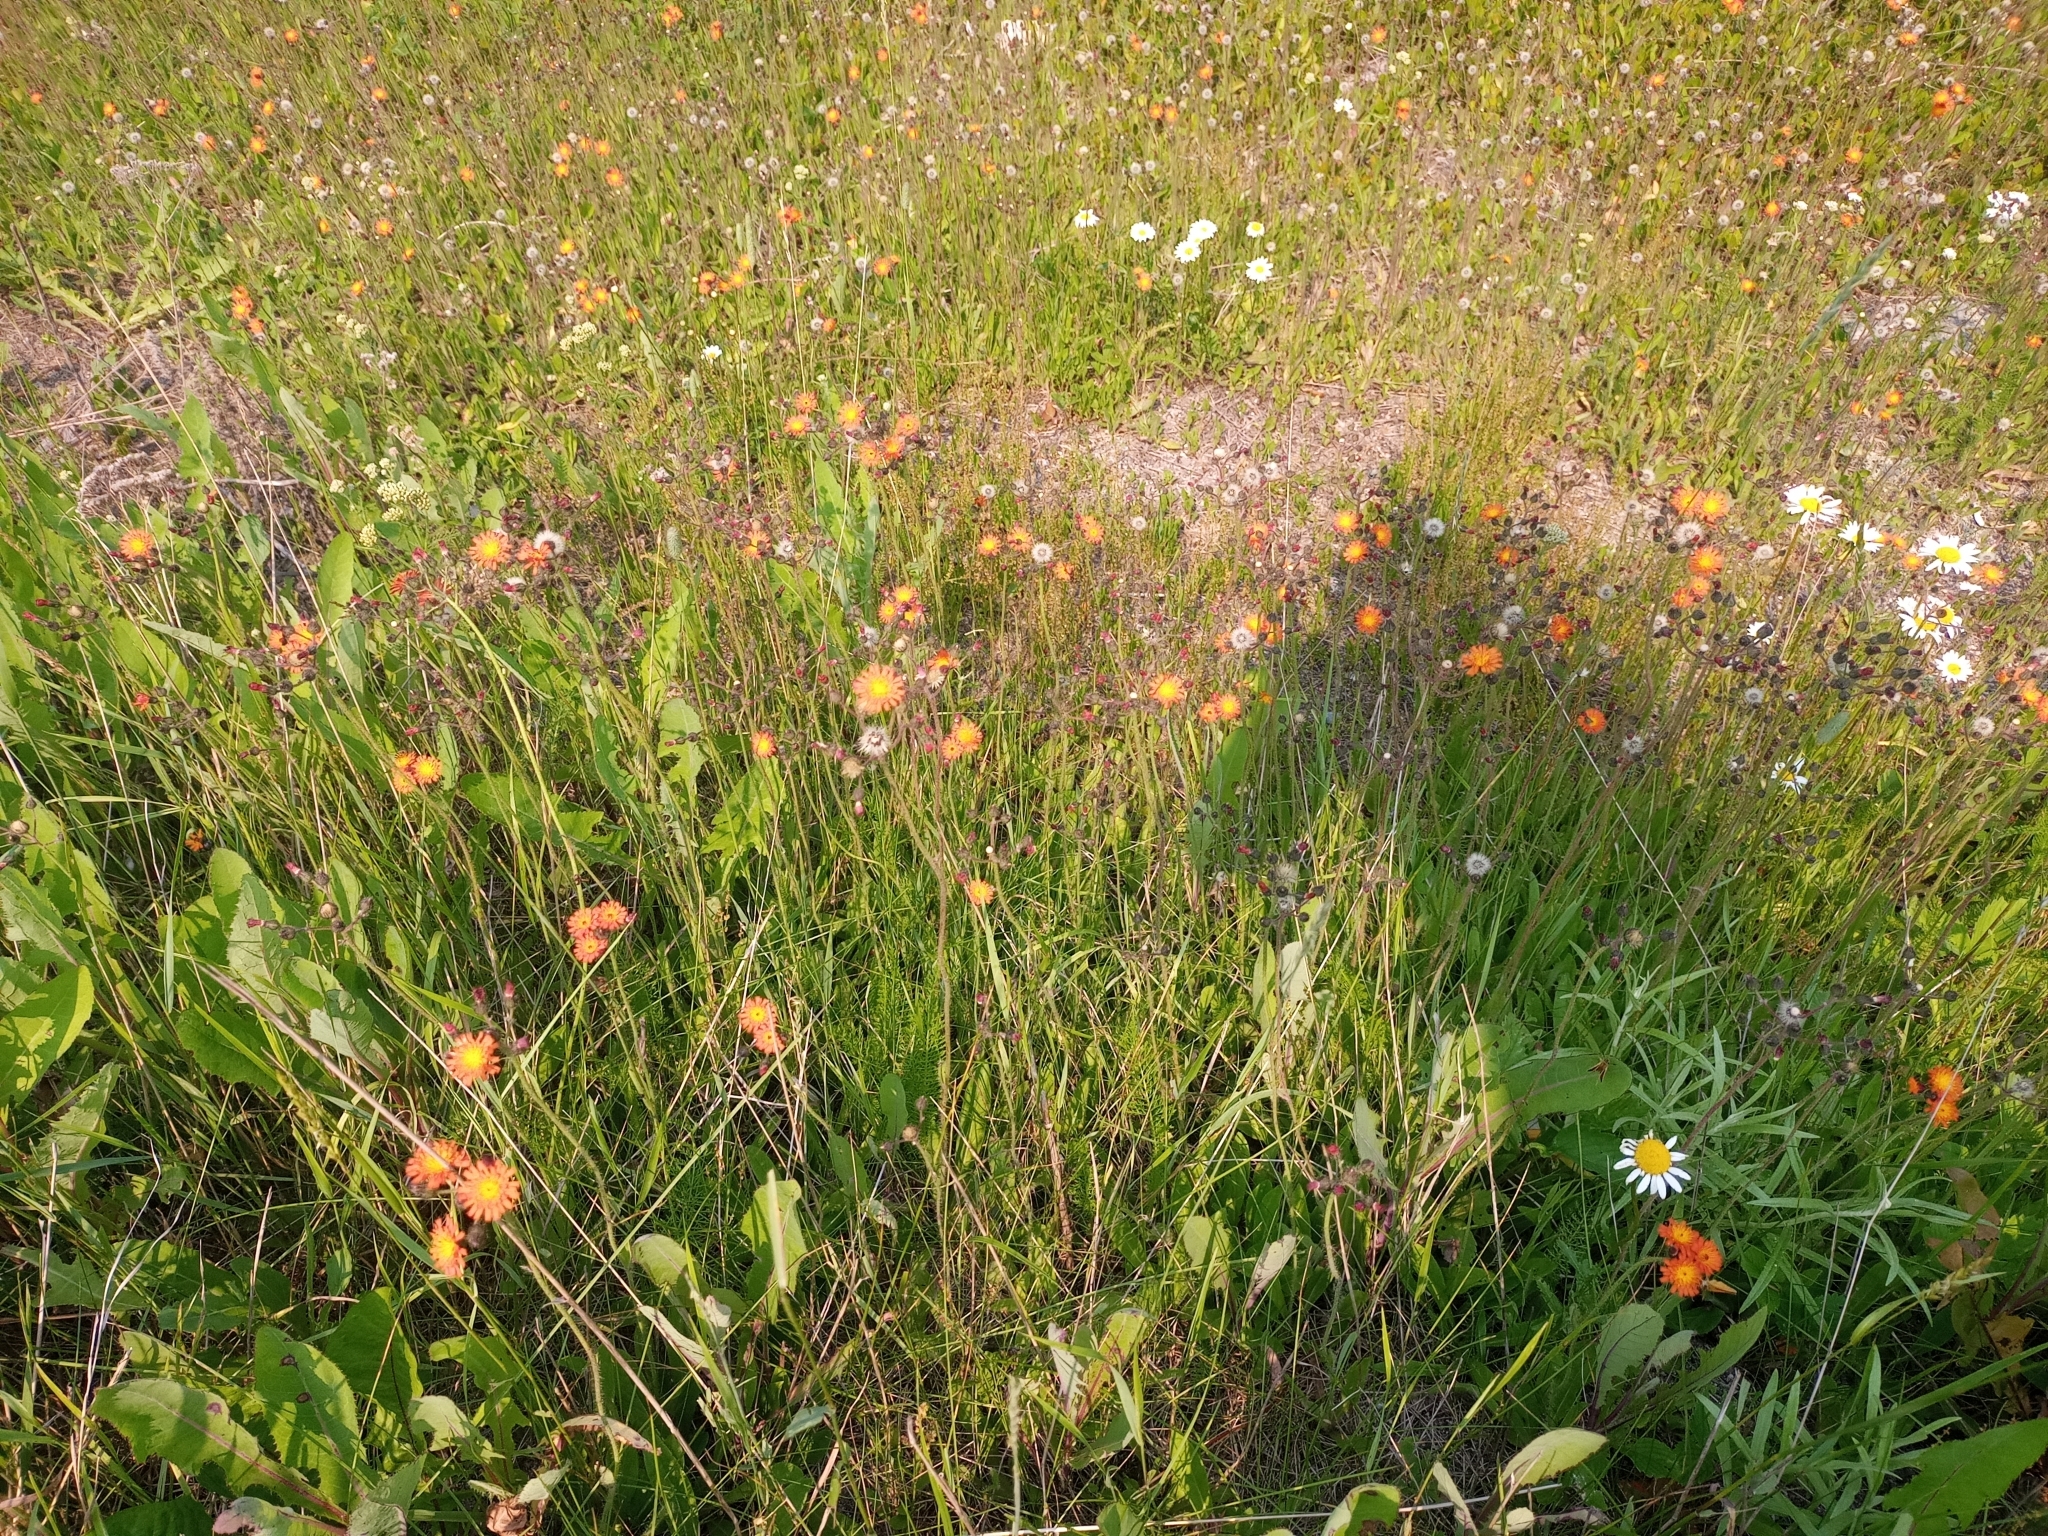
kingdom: Plantae
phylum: Tracheophyta
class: Magnoliopsida
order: Asterales
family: Asteraceae
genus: Pilosella
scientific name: Pilosella aurantiaca
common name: Fox-and-cubs
